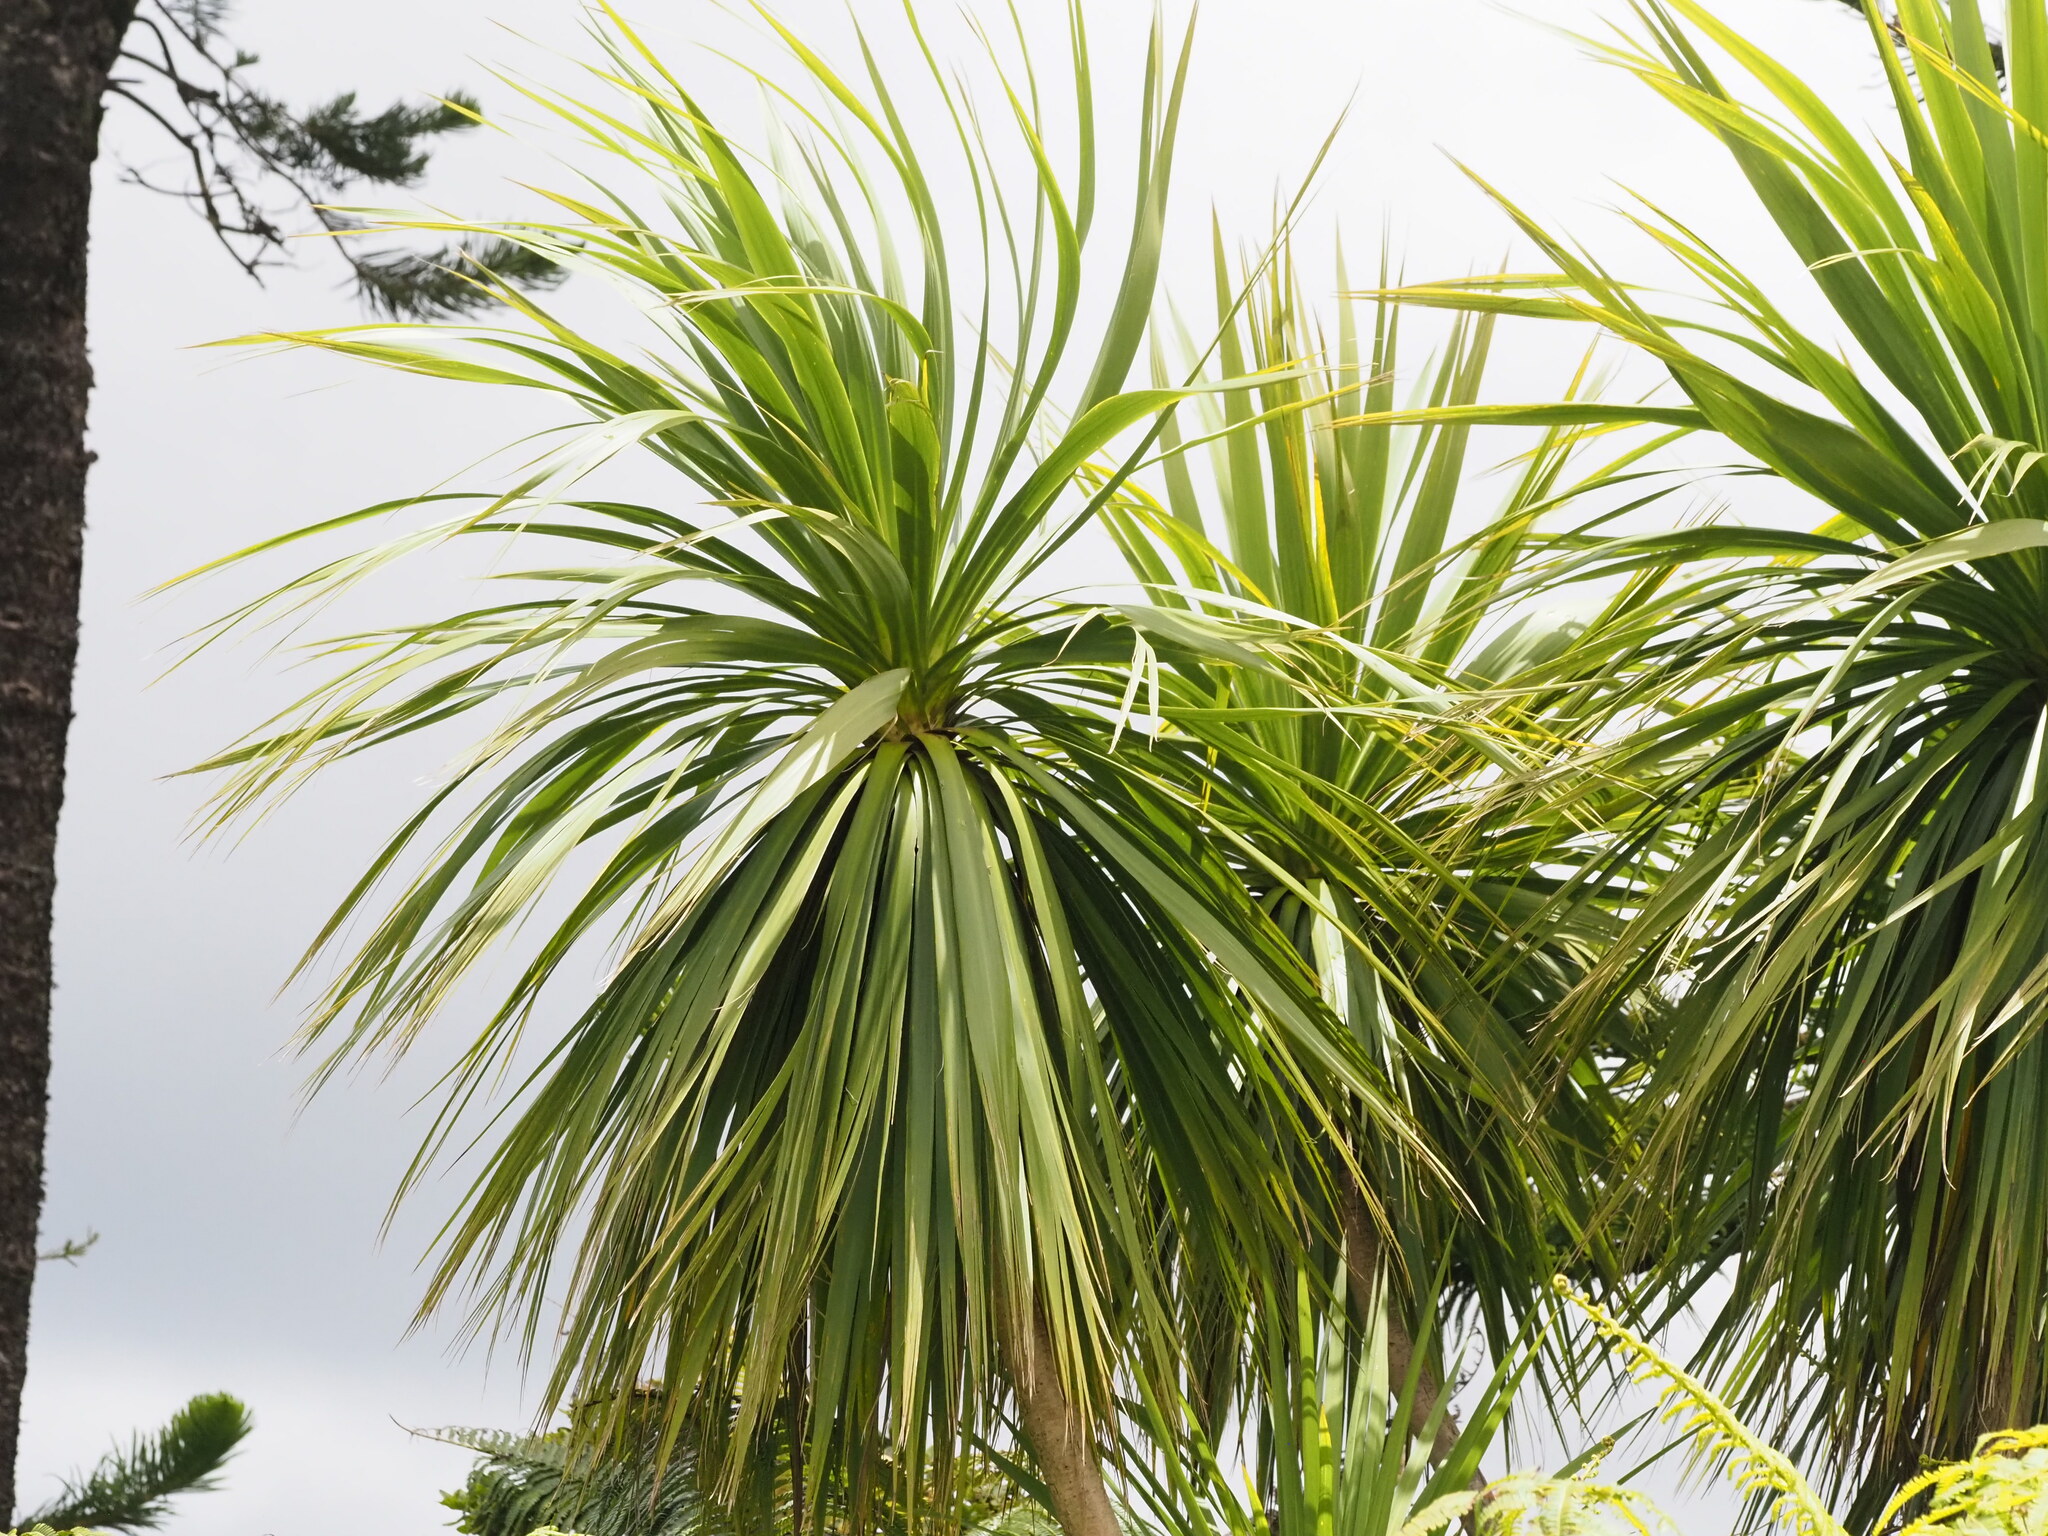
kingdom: Plantae
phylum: Tracheophyta
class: Liliopsida
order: Asparagales
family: Asparagaceae
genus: Cordyline
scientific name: Cordyline australis
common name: Cabbage-palm
